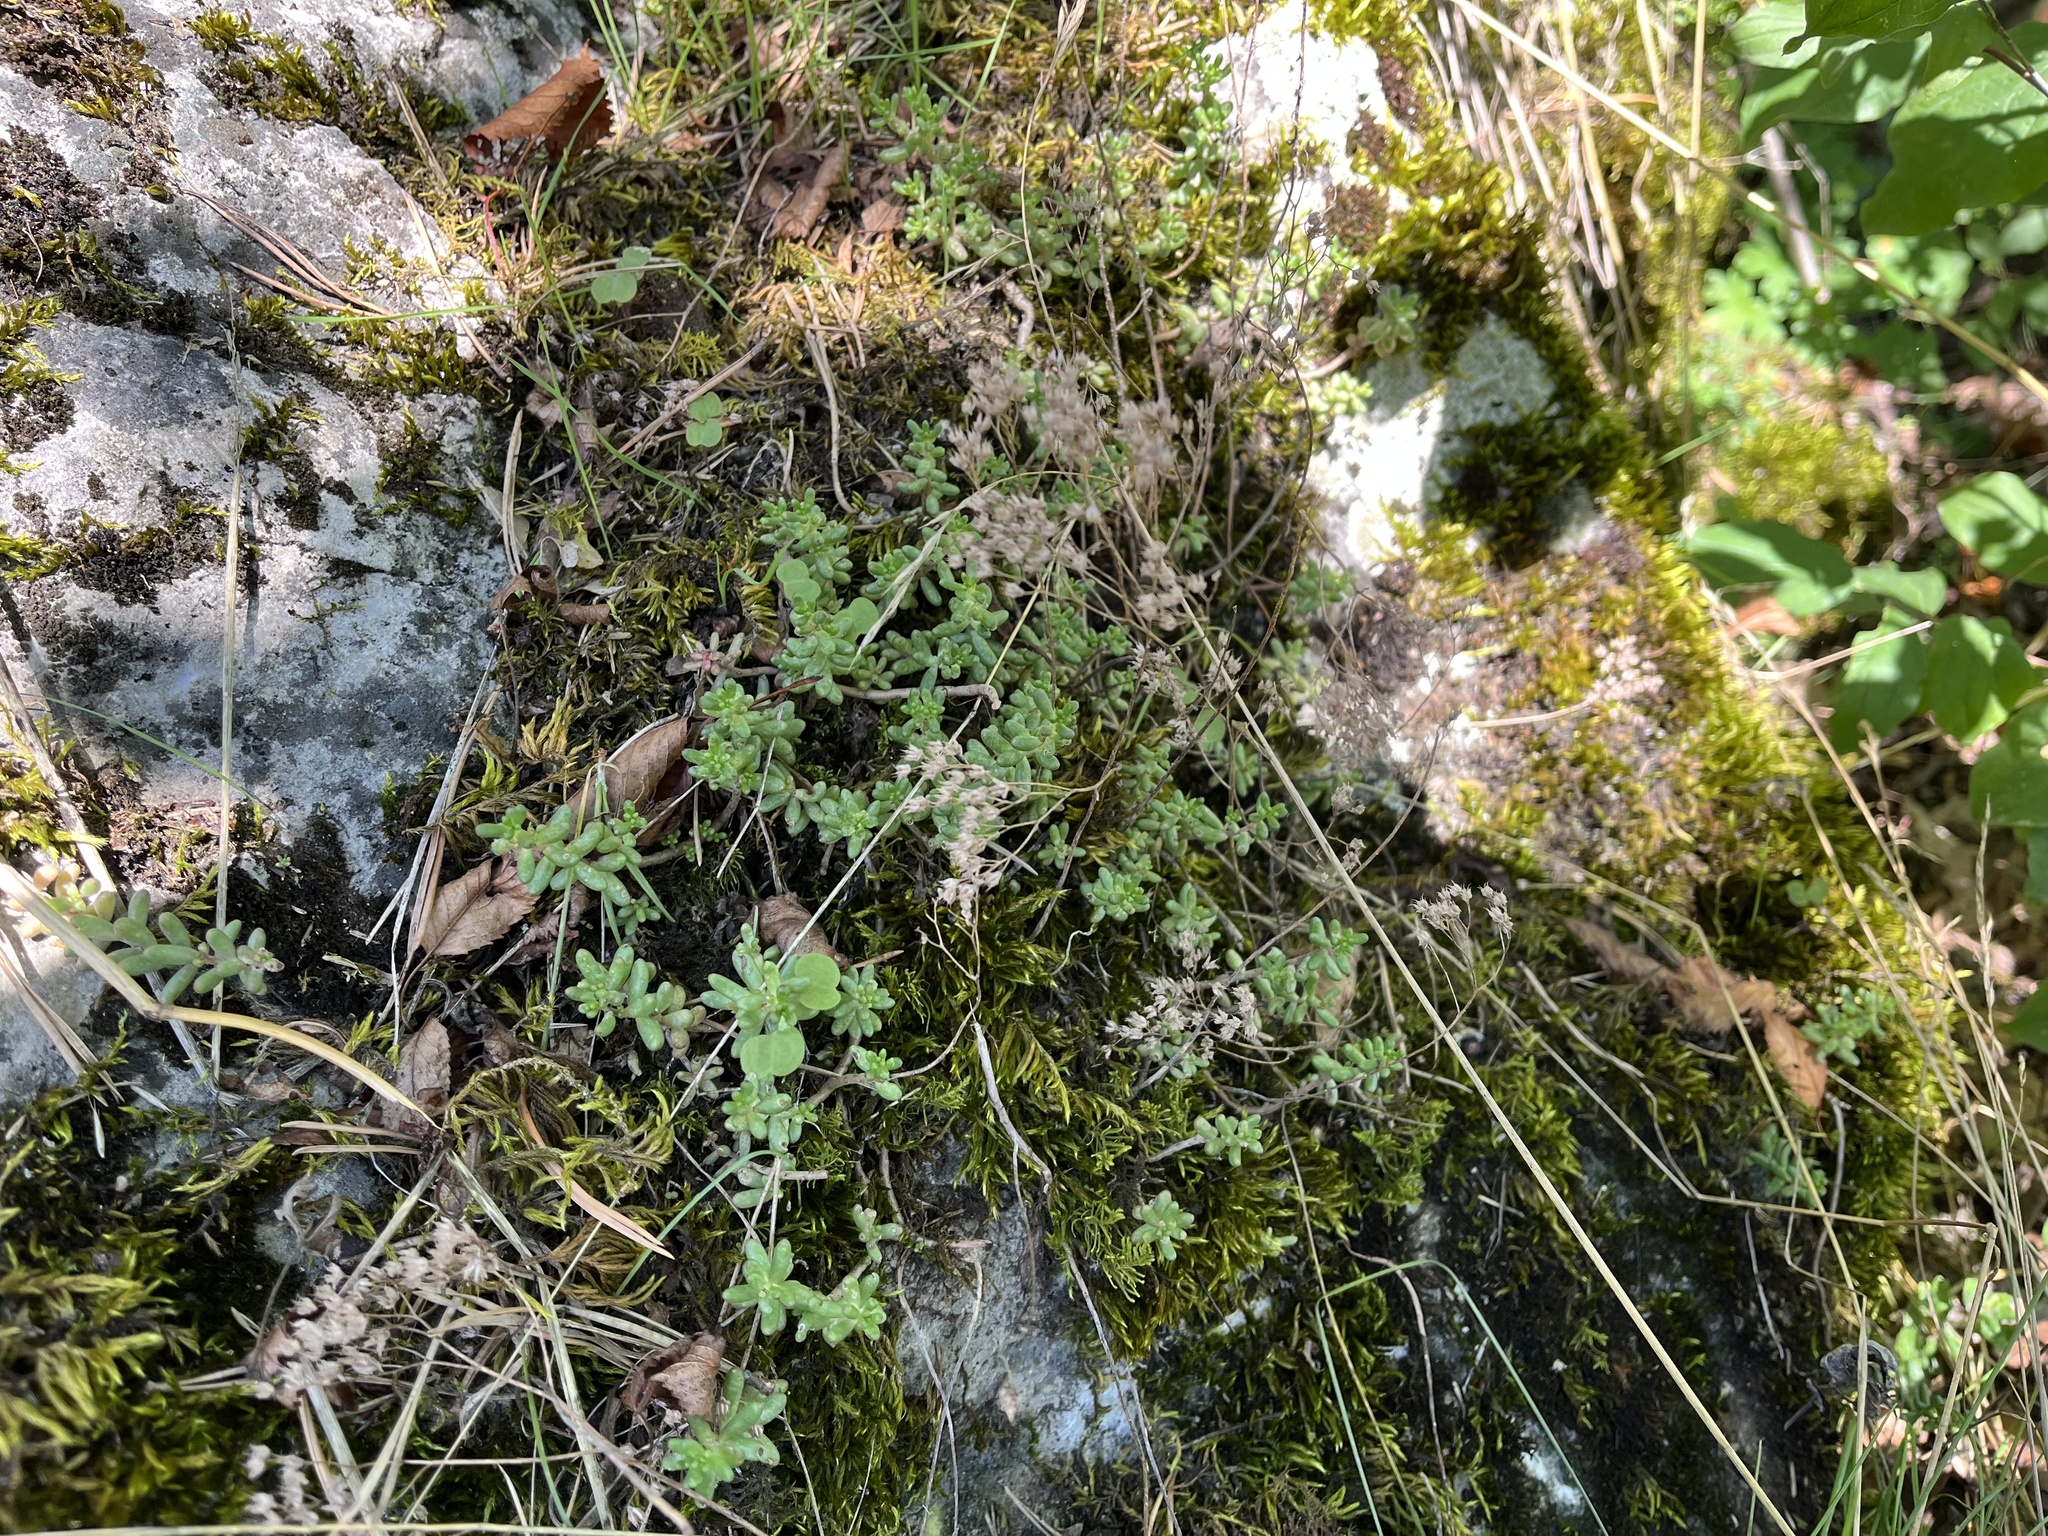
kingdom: Plantae
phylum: Tracheophyta
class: Magnoliopsida
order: Saxifragales
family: Crassulaceae
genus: Sedum
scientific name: Sedum album
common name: White stonecrop
